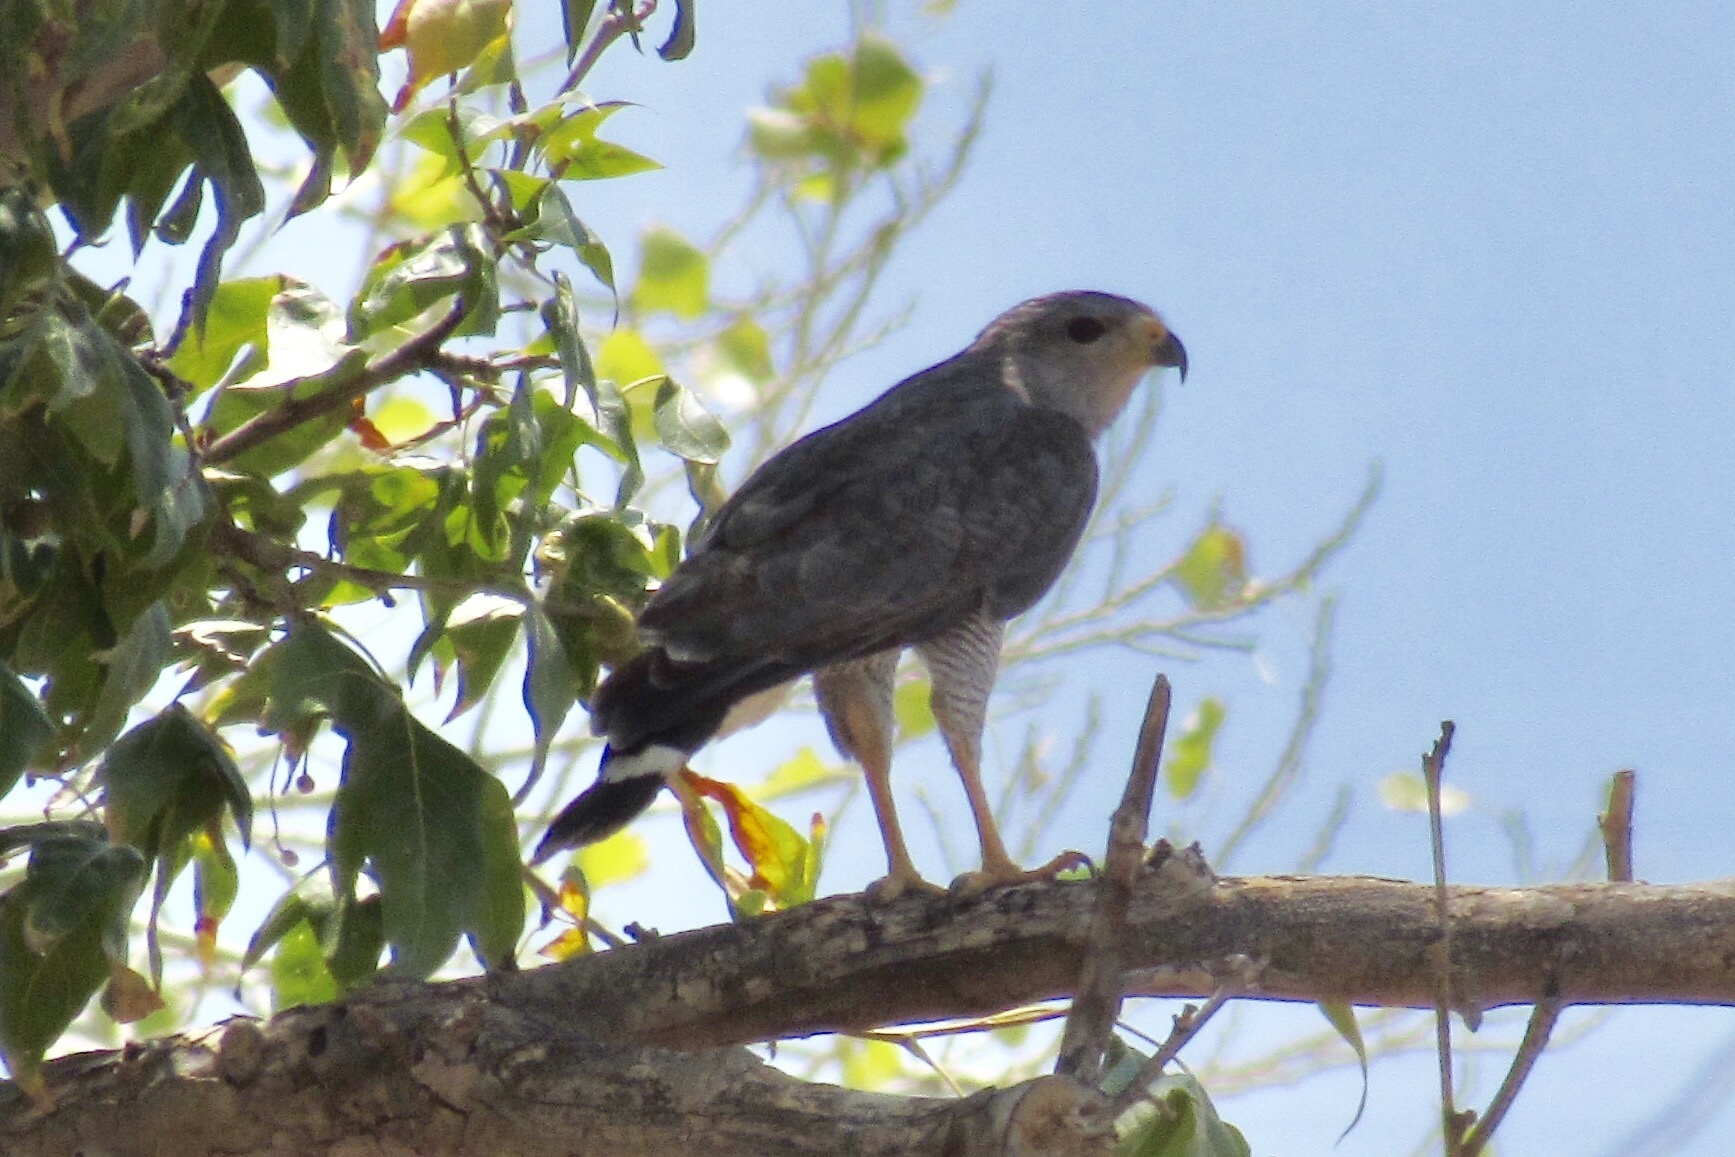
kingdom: Animalia
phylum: Chordata
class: Aves
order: Accipitriformes
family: Accipitridae
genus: Buteo
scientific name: Buteo nitidus
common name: Grey-lined hawk
